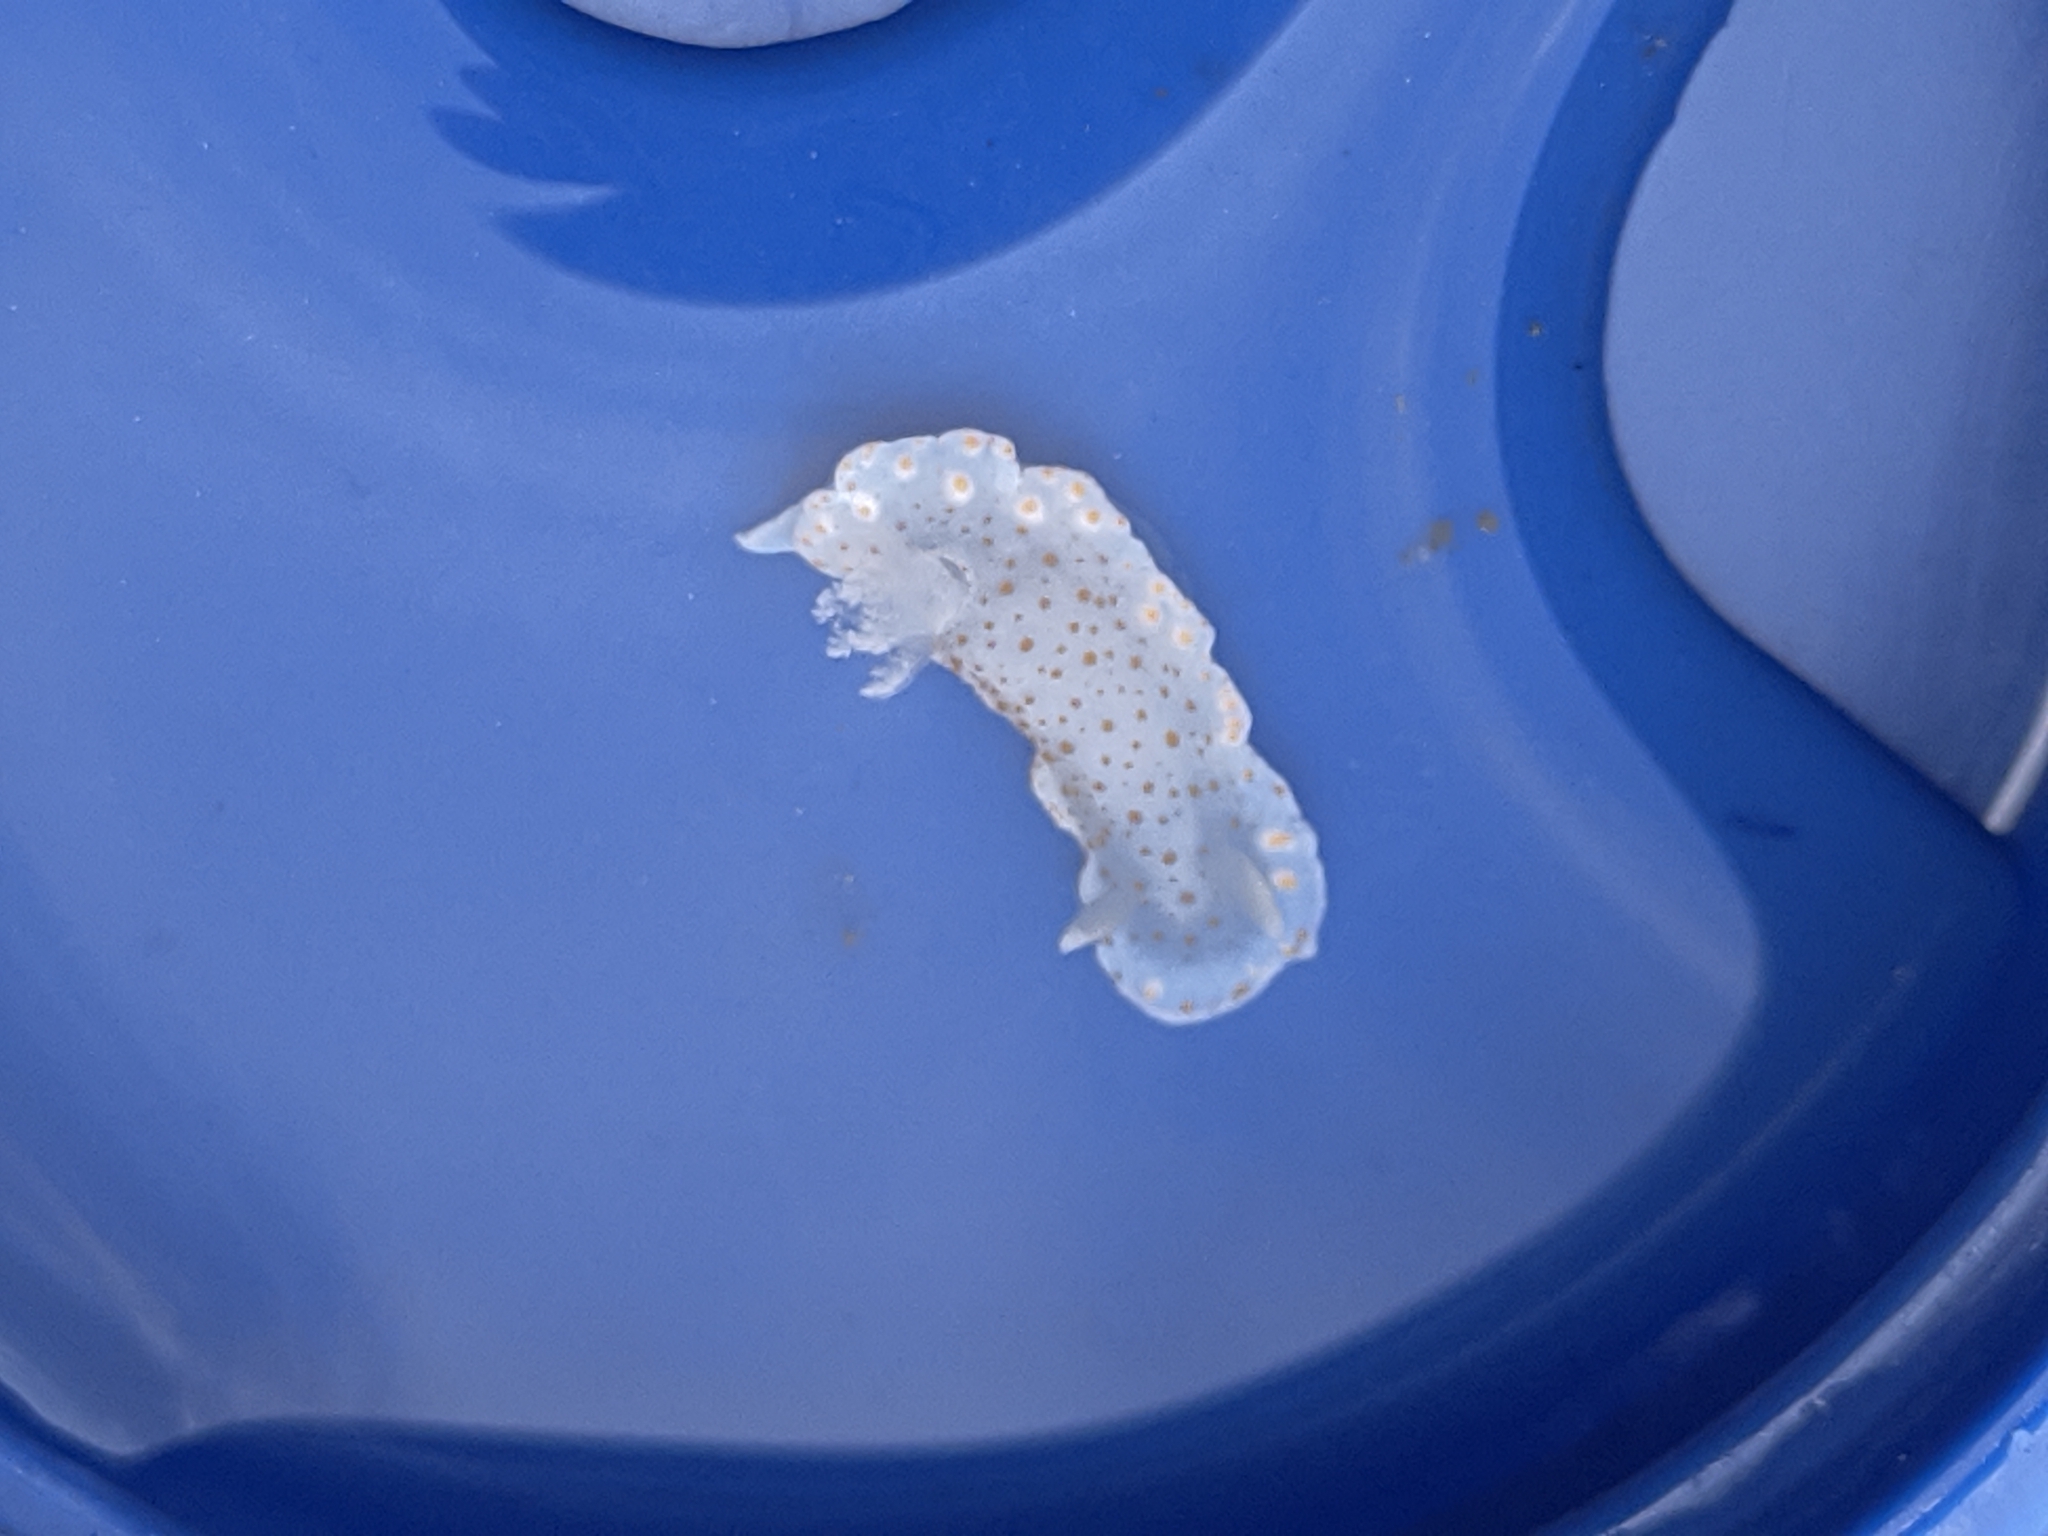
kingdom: Animalia
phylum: Mollusca
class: Gastropoda
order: Nudibranchia
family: Chromodorididae
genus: Tyrinna
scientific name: Tyrinna evelinae
